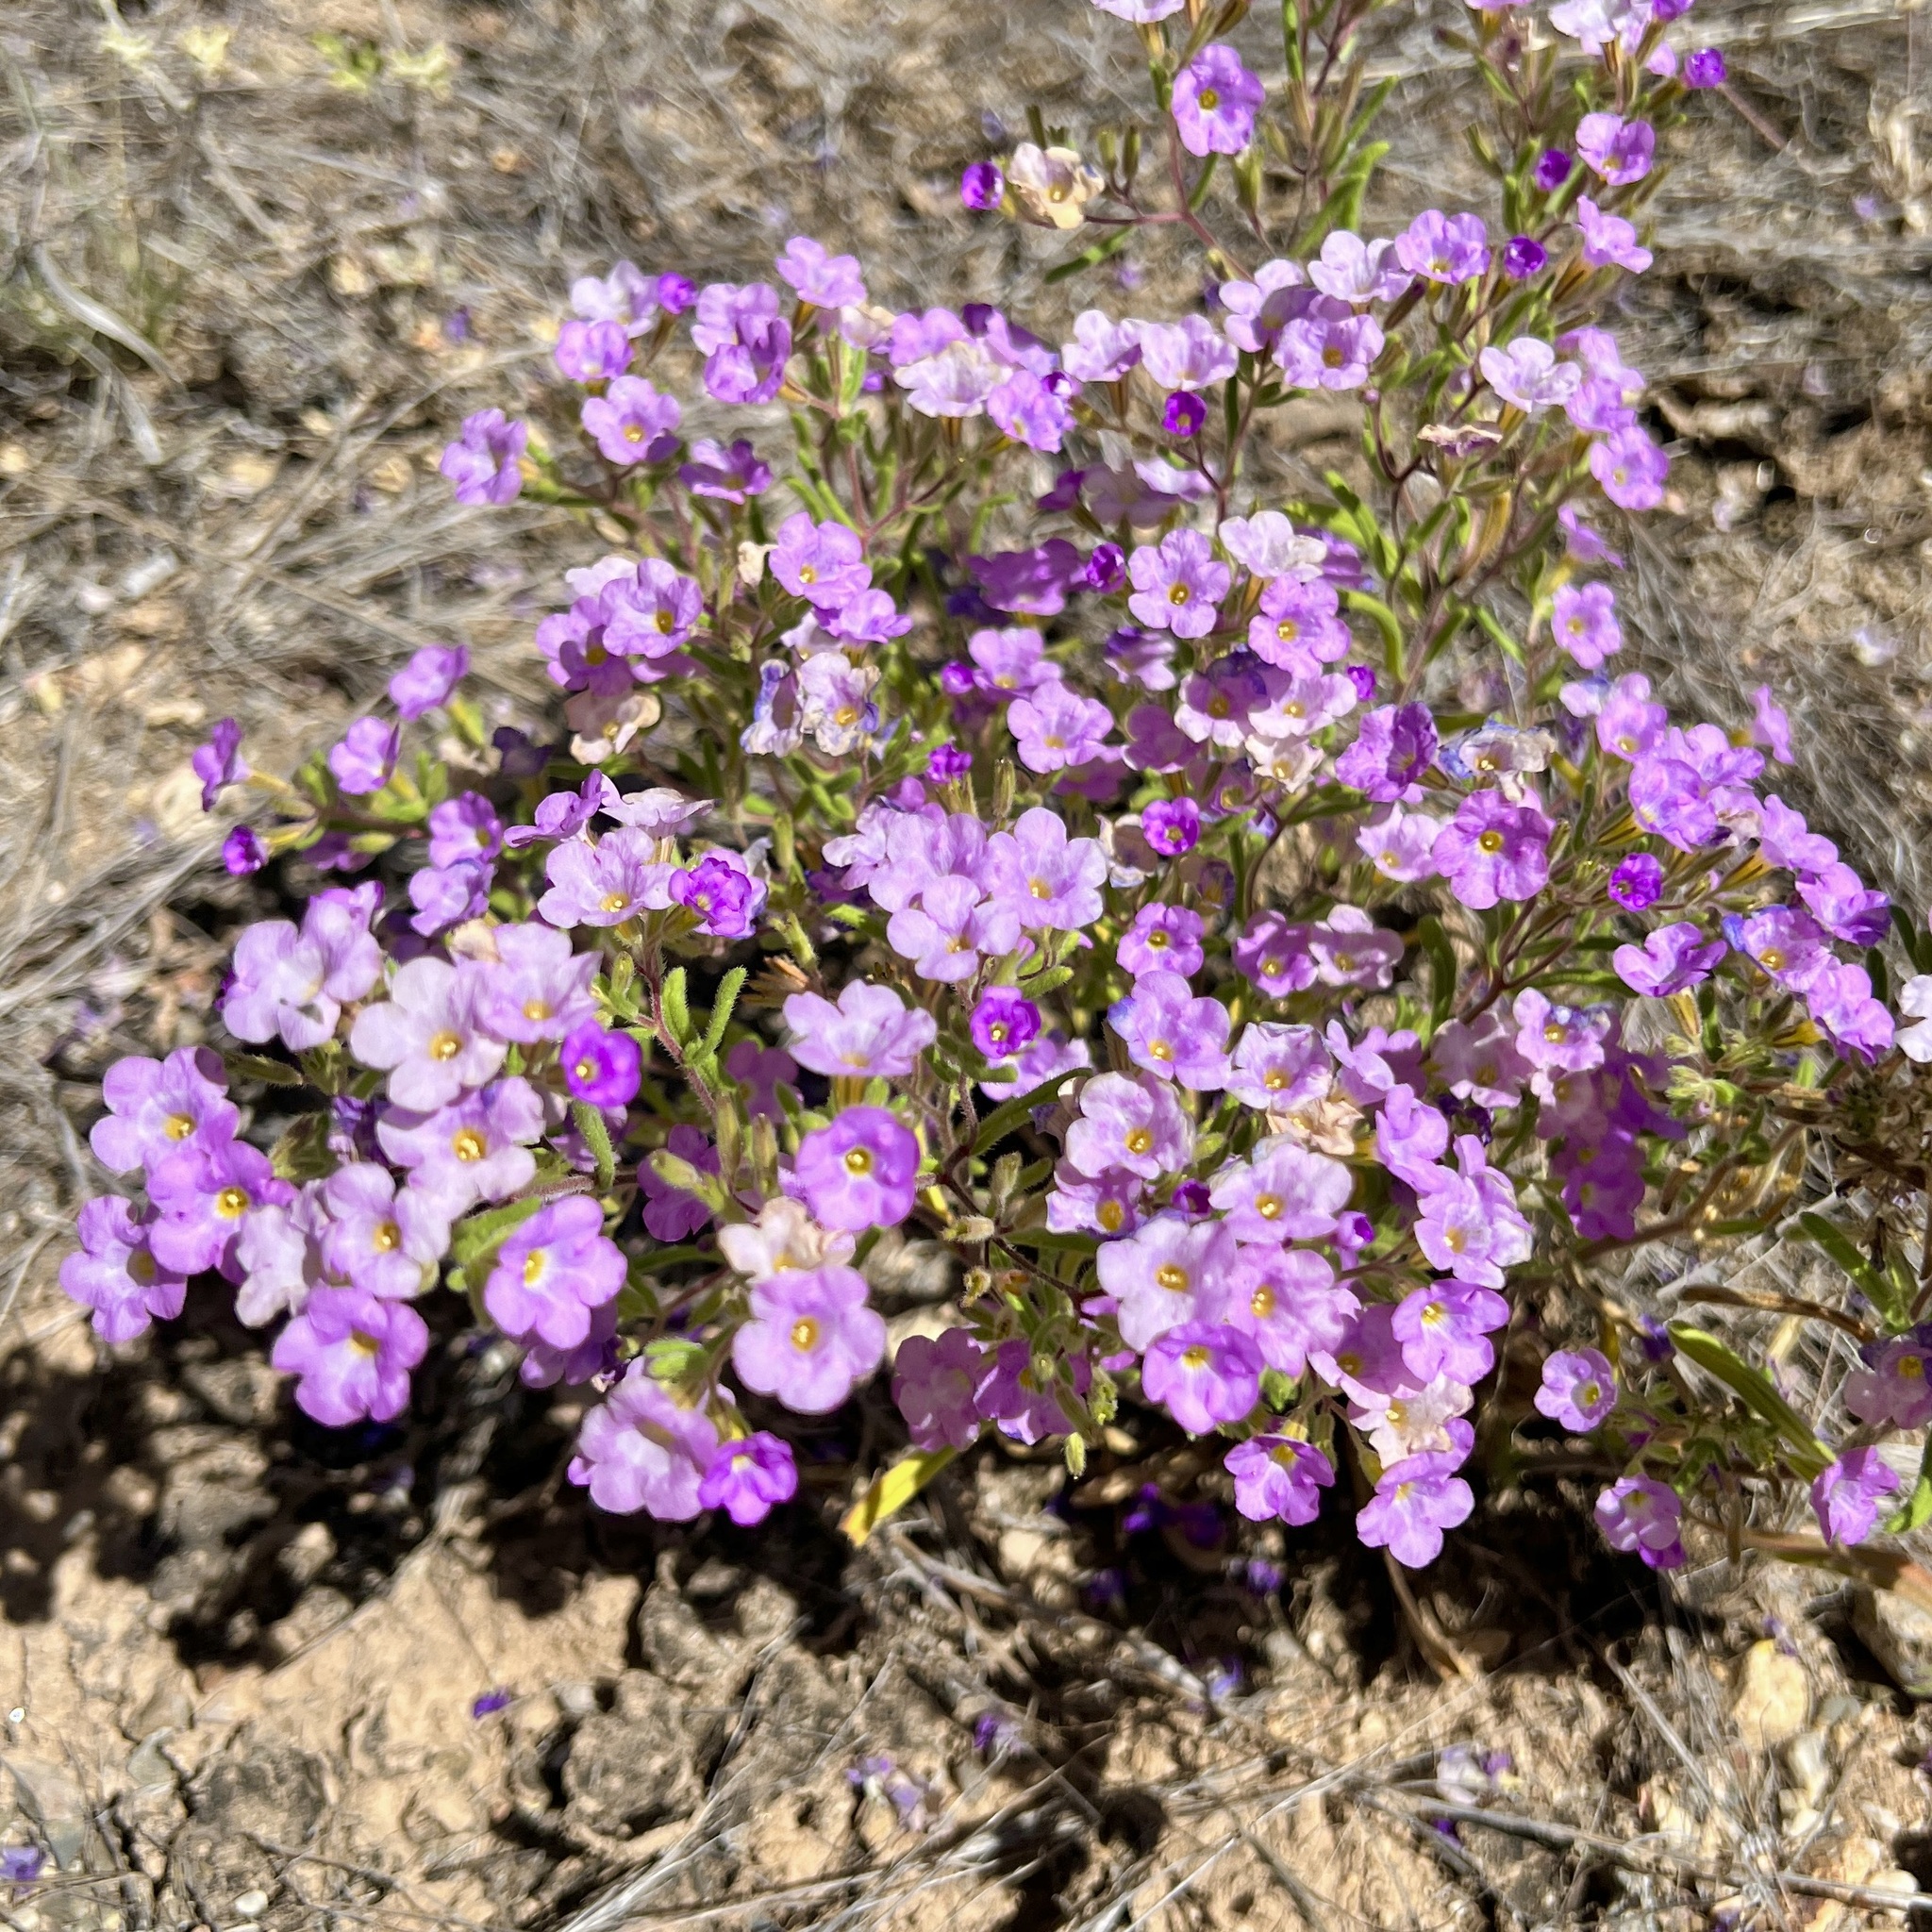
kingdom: Plantae
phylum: Tracheophyta
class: Magnoliopsida
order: Boraginales
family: Namaceae
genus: Nama
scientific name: Nama hispida
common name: Bristly nama
